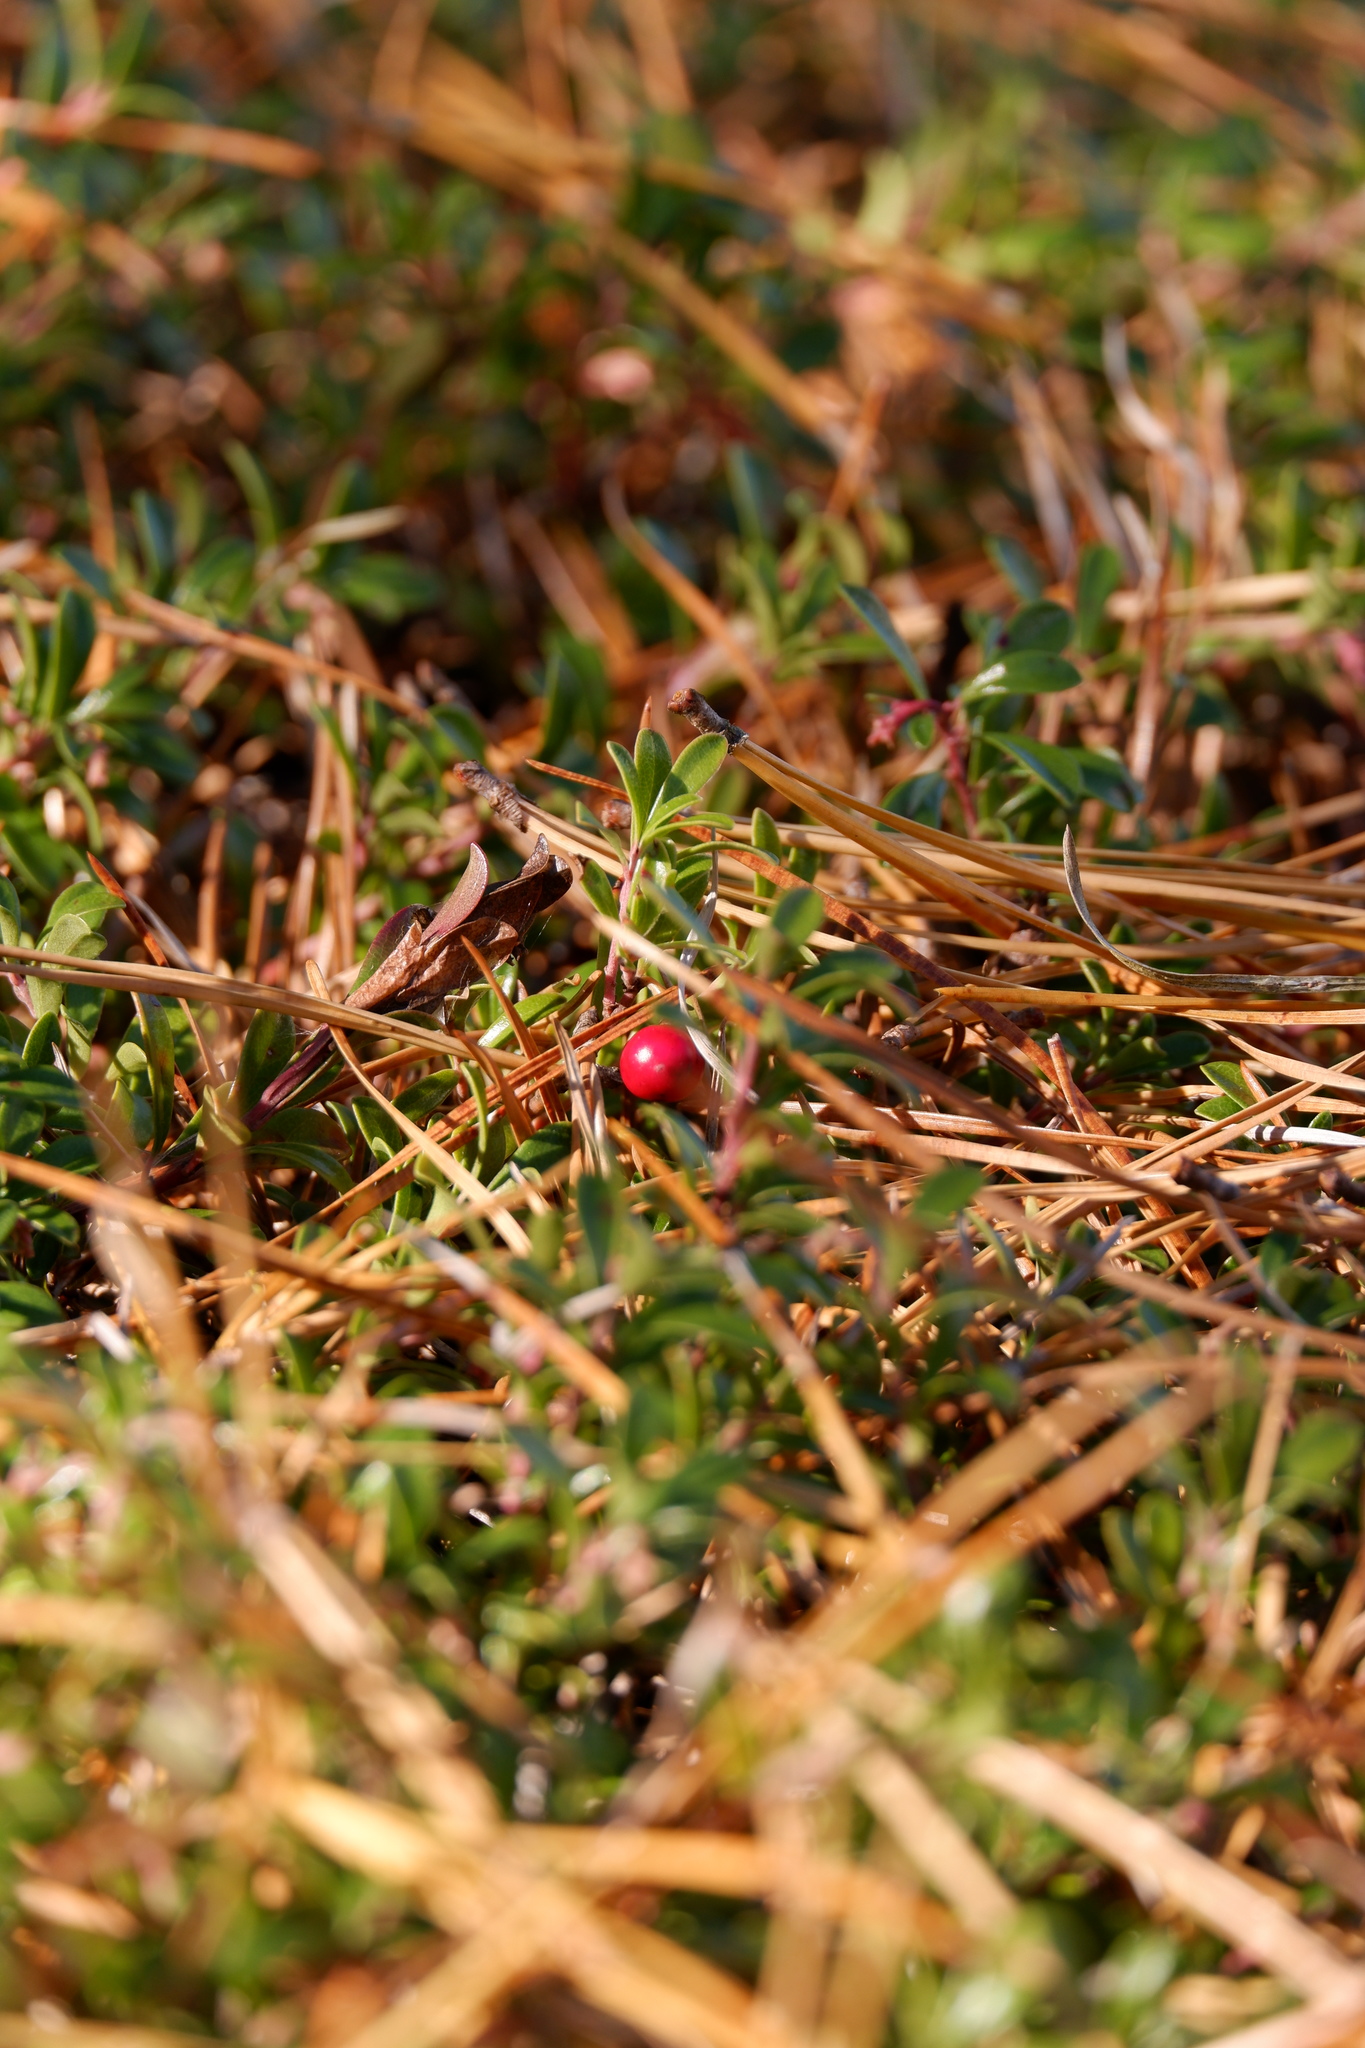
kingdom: Plantae
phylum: Tracheophyta
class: Magnoliopsida
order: Ericales
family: Ericaceae
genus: Arctostaphylos
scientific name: Arctostaphylos uva-ursi
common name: Bearberry
